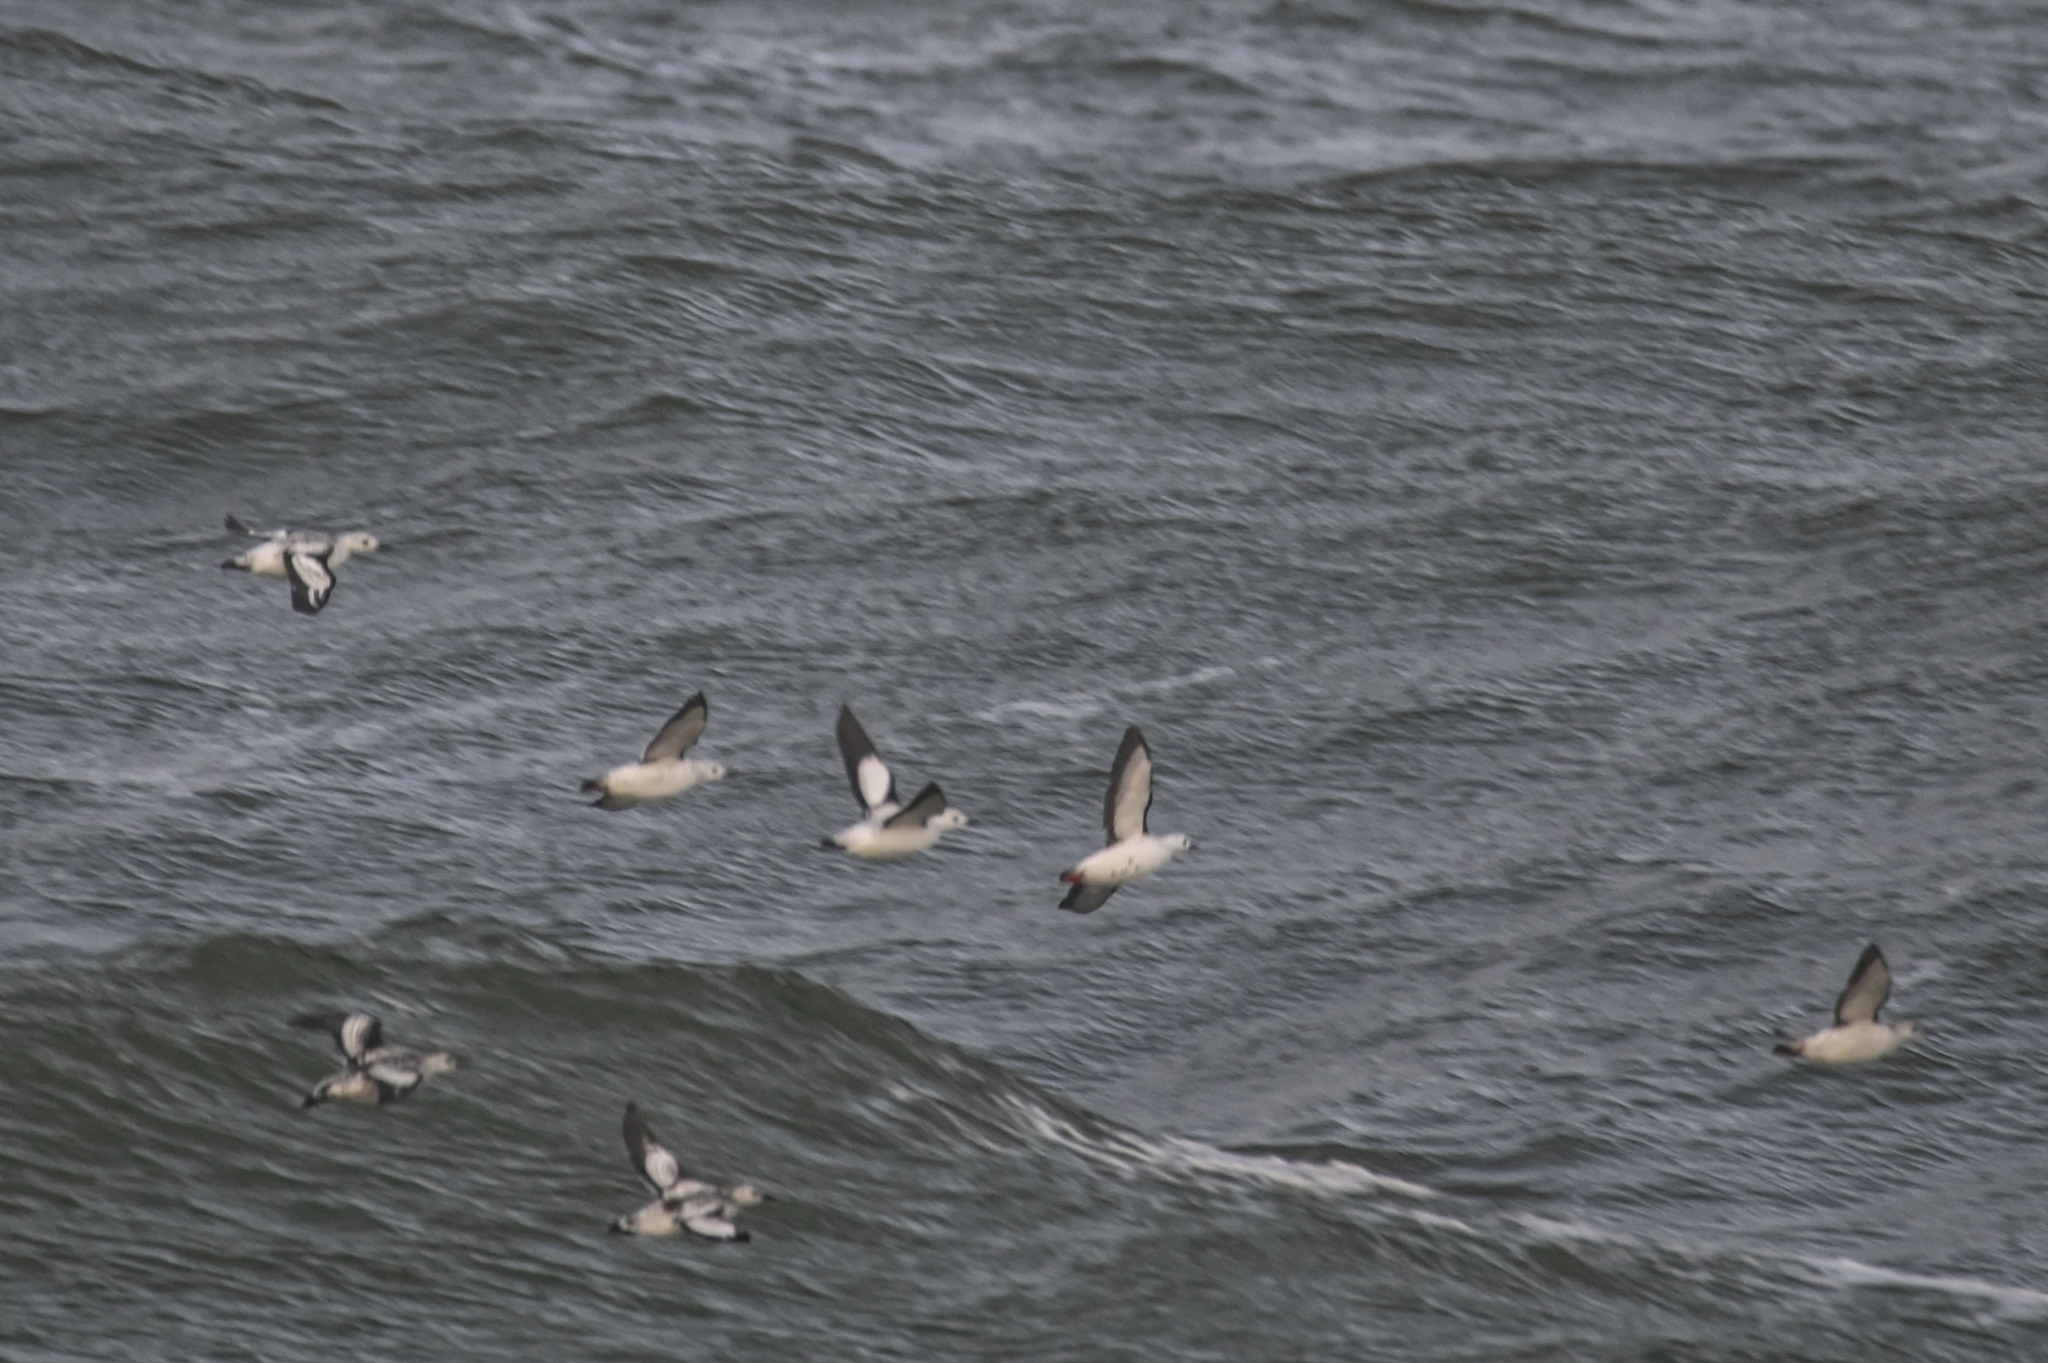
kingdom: Animalia
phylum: Chordata
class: Aves
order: Charadriiformes
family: Alcidae
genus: Cepphus
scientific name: Cepphus grylle
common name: Black guillemot
